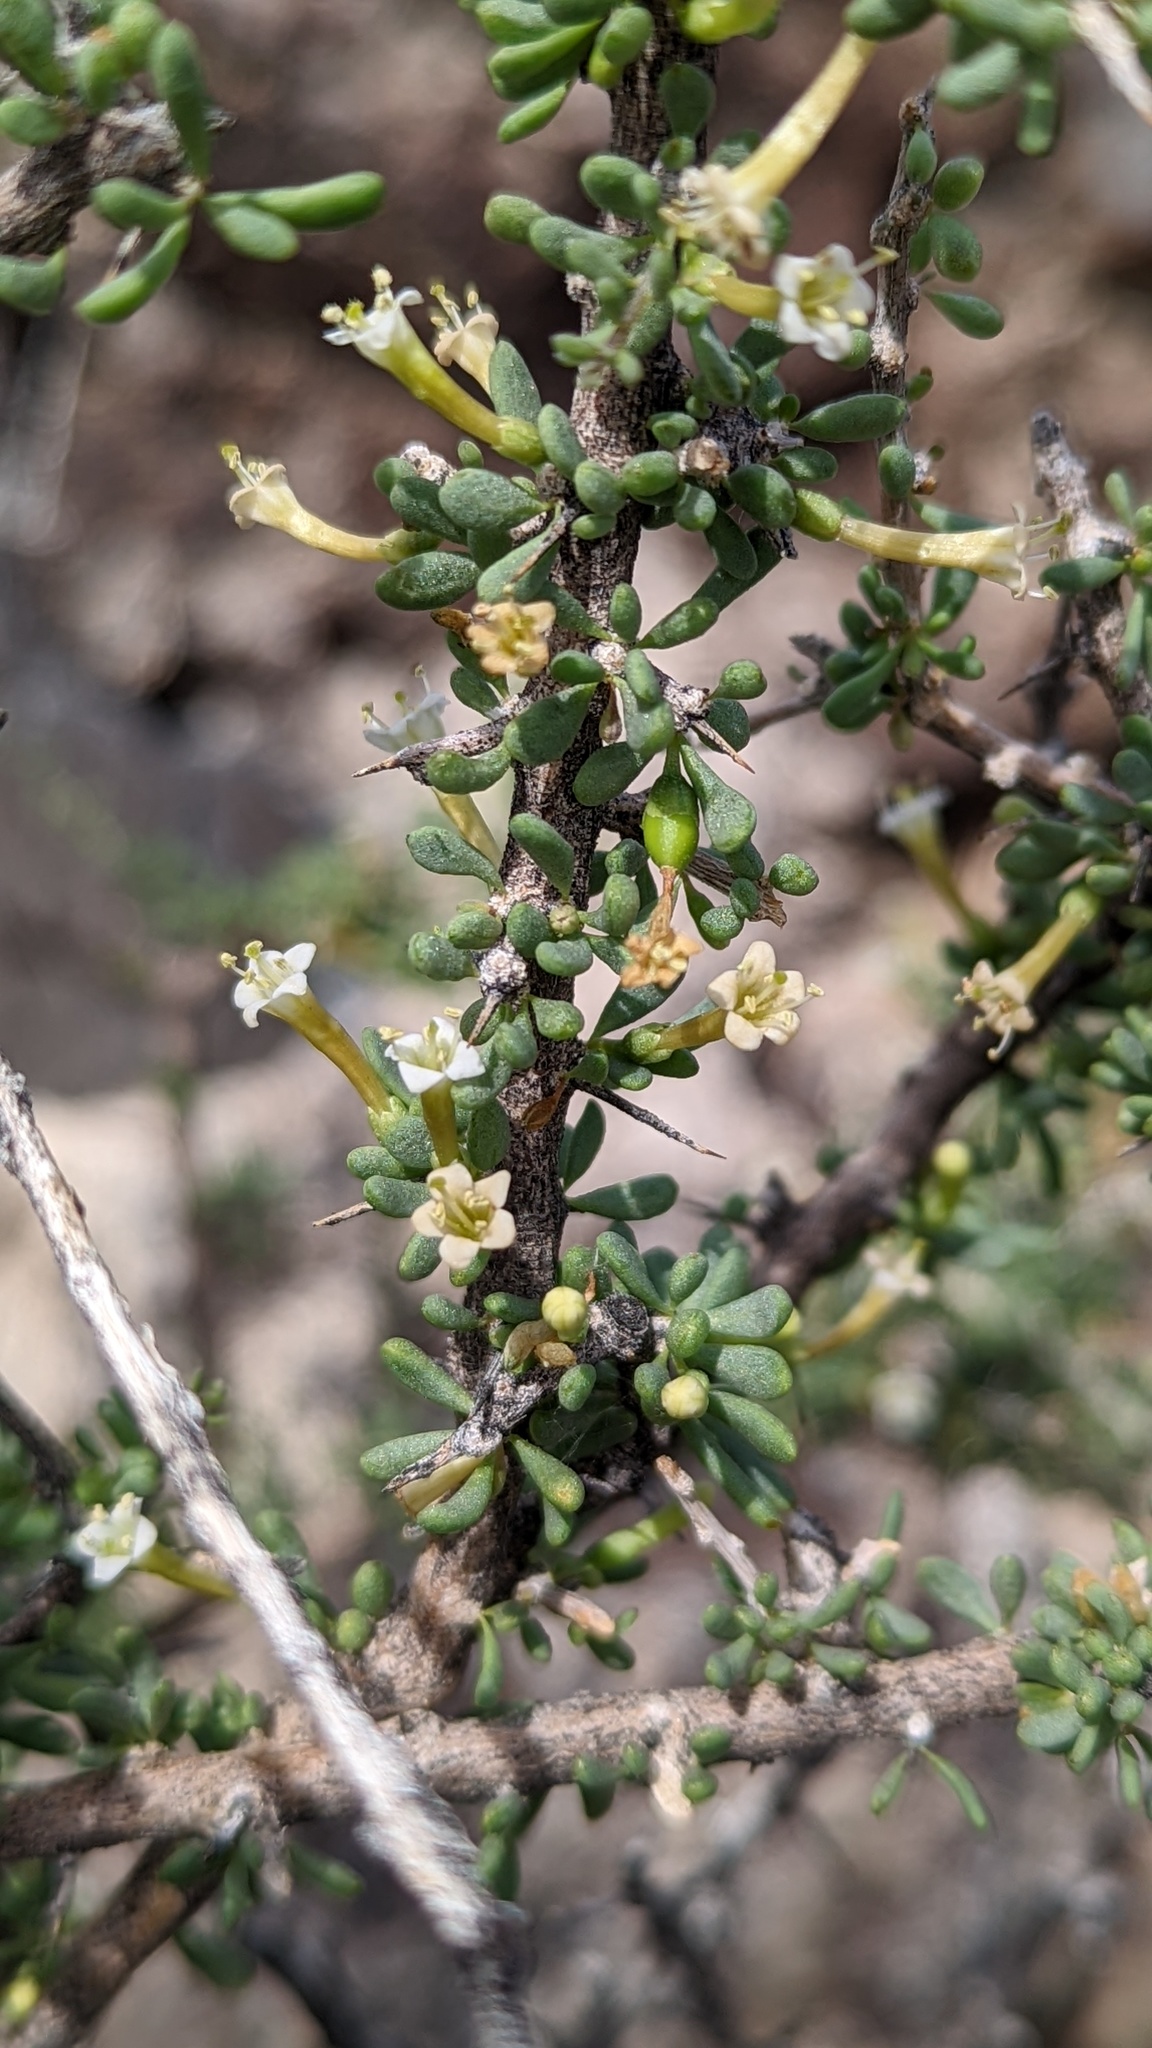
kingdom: Plantae
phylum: Tracheophyta
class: Magnoliopsida
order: Solanales
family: Solanaceae
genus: Lycium
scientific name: Lycium andersonii
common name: Water-jacket
